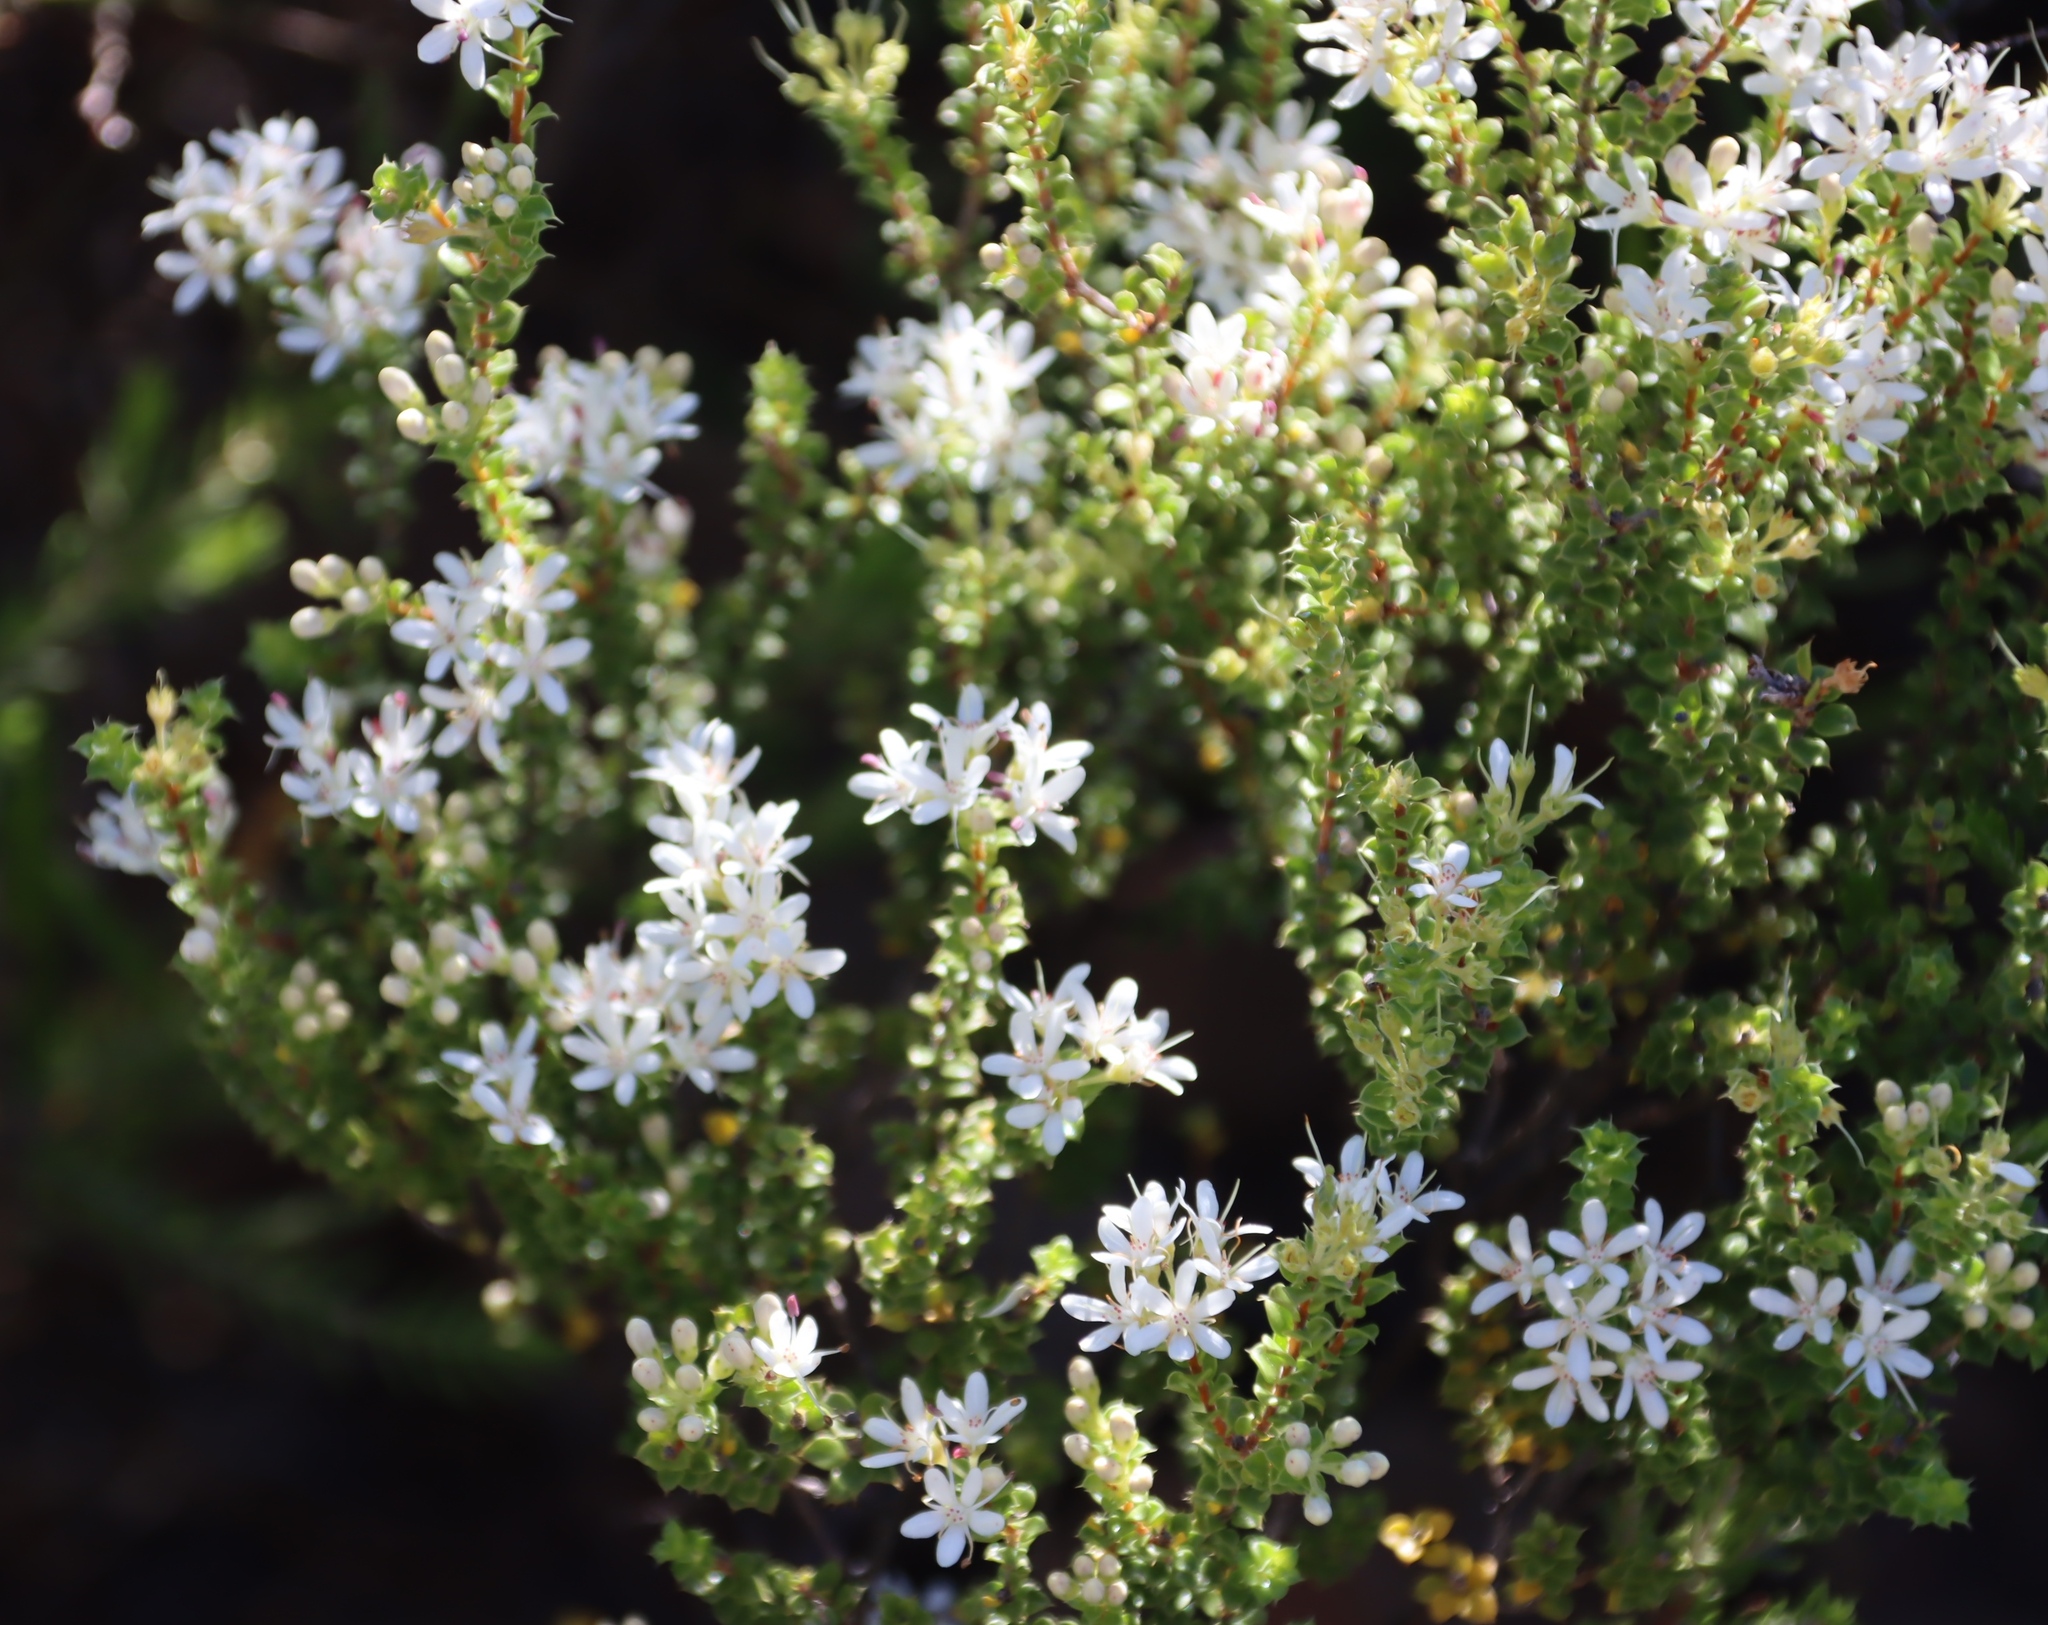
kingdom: Plantae
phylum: Tracheophyta
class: Magnoliopsida
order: Sapindales
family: Rutaceae
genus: Agathosma
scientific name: Agathosma spinosa
